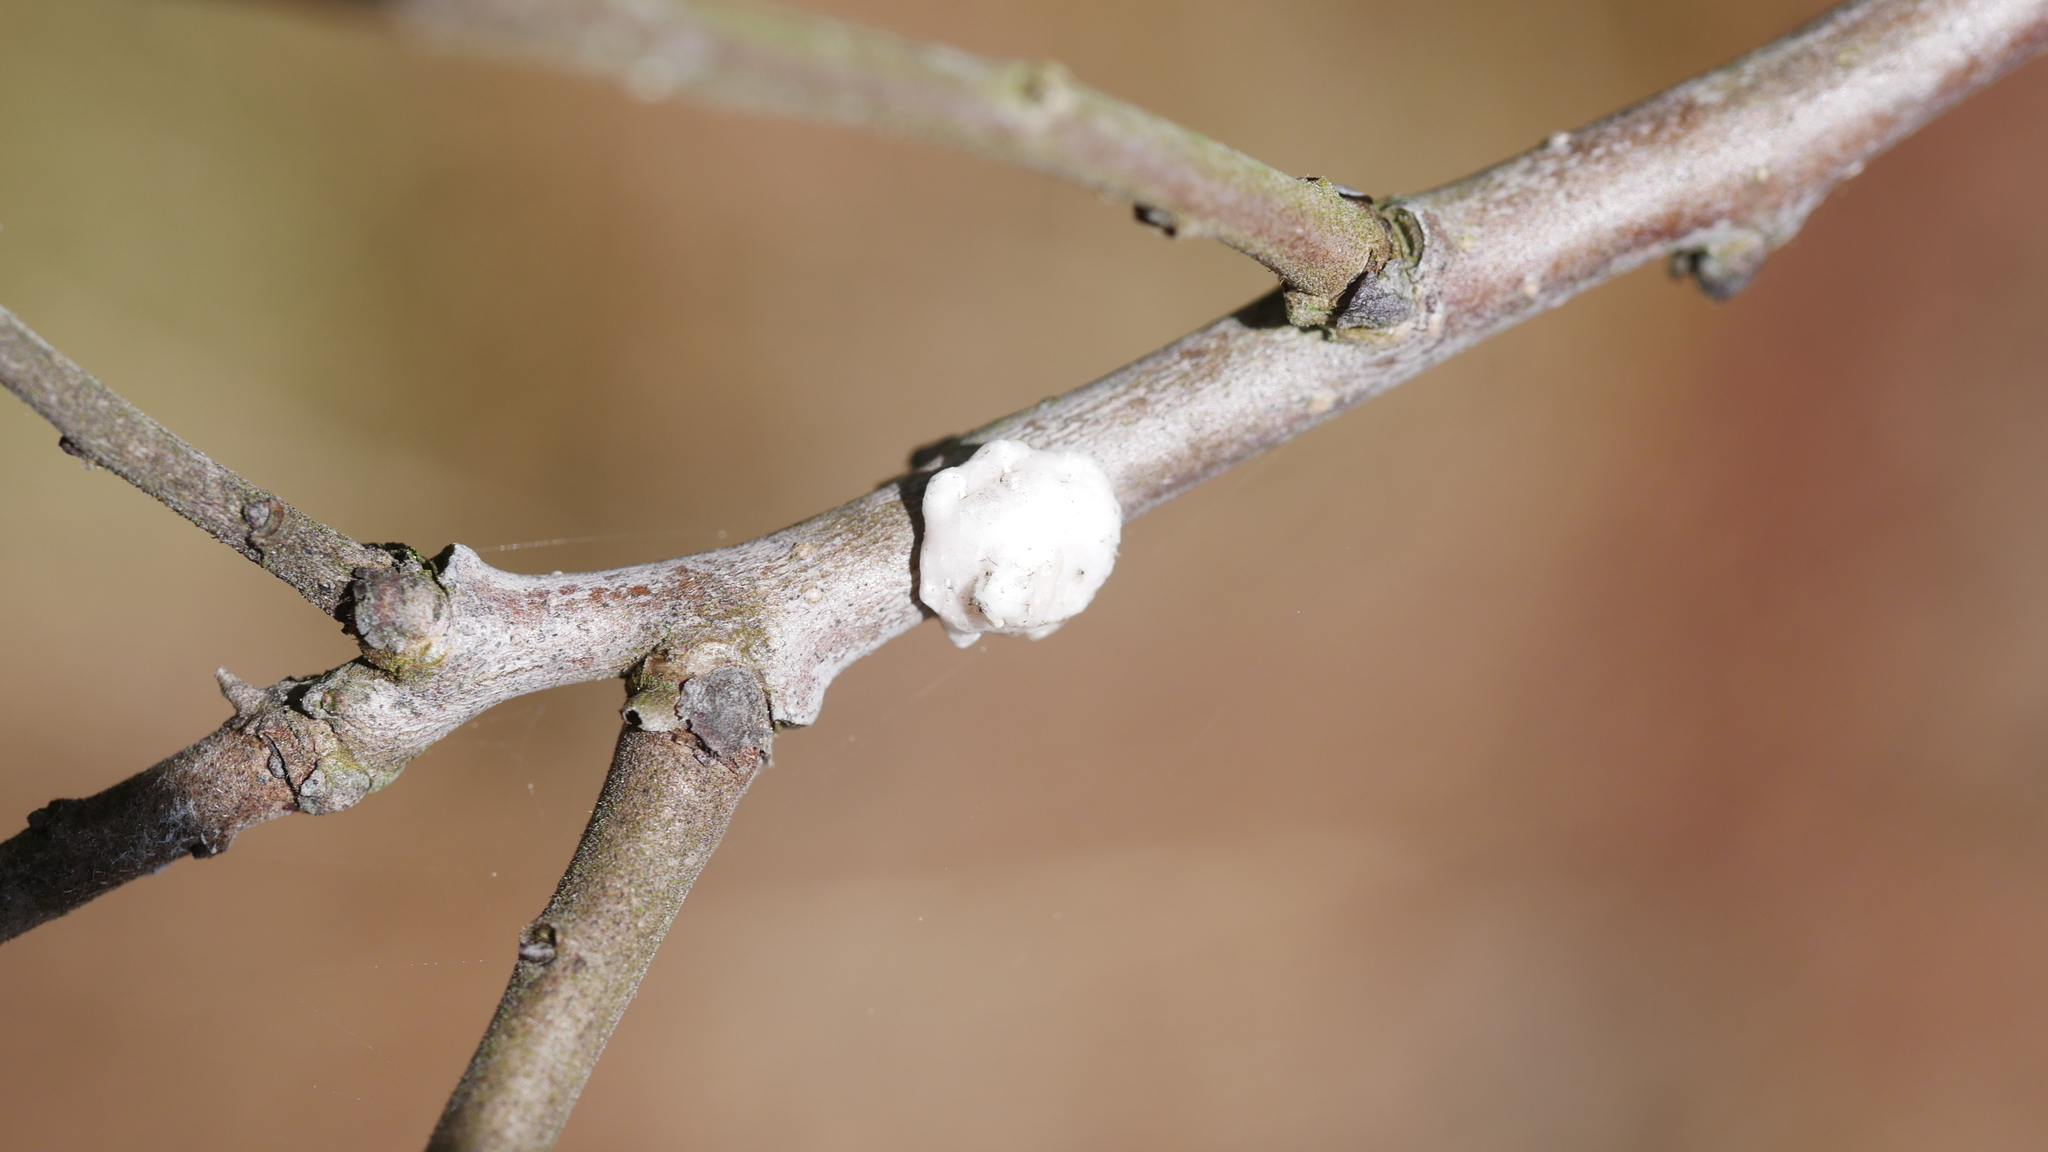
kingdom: Animalia
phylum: Arthropoda
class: Insecta
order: Hemiptera
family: Coccidae
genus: Ceroplastes
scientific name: Ceroplastes ceriferus
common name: Indian wax scale
